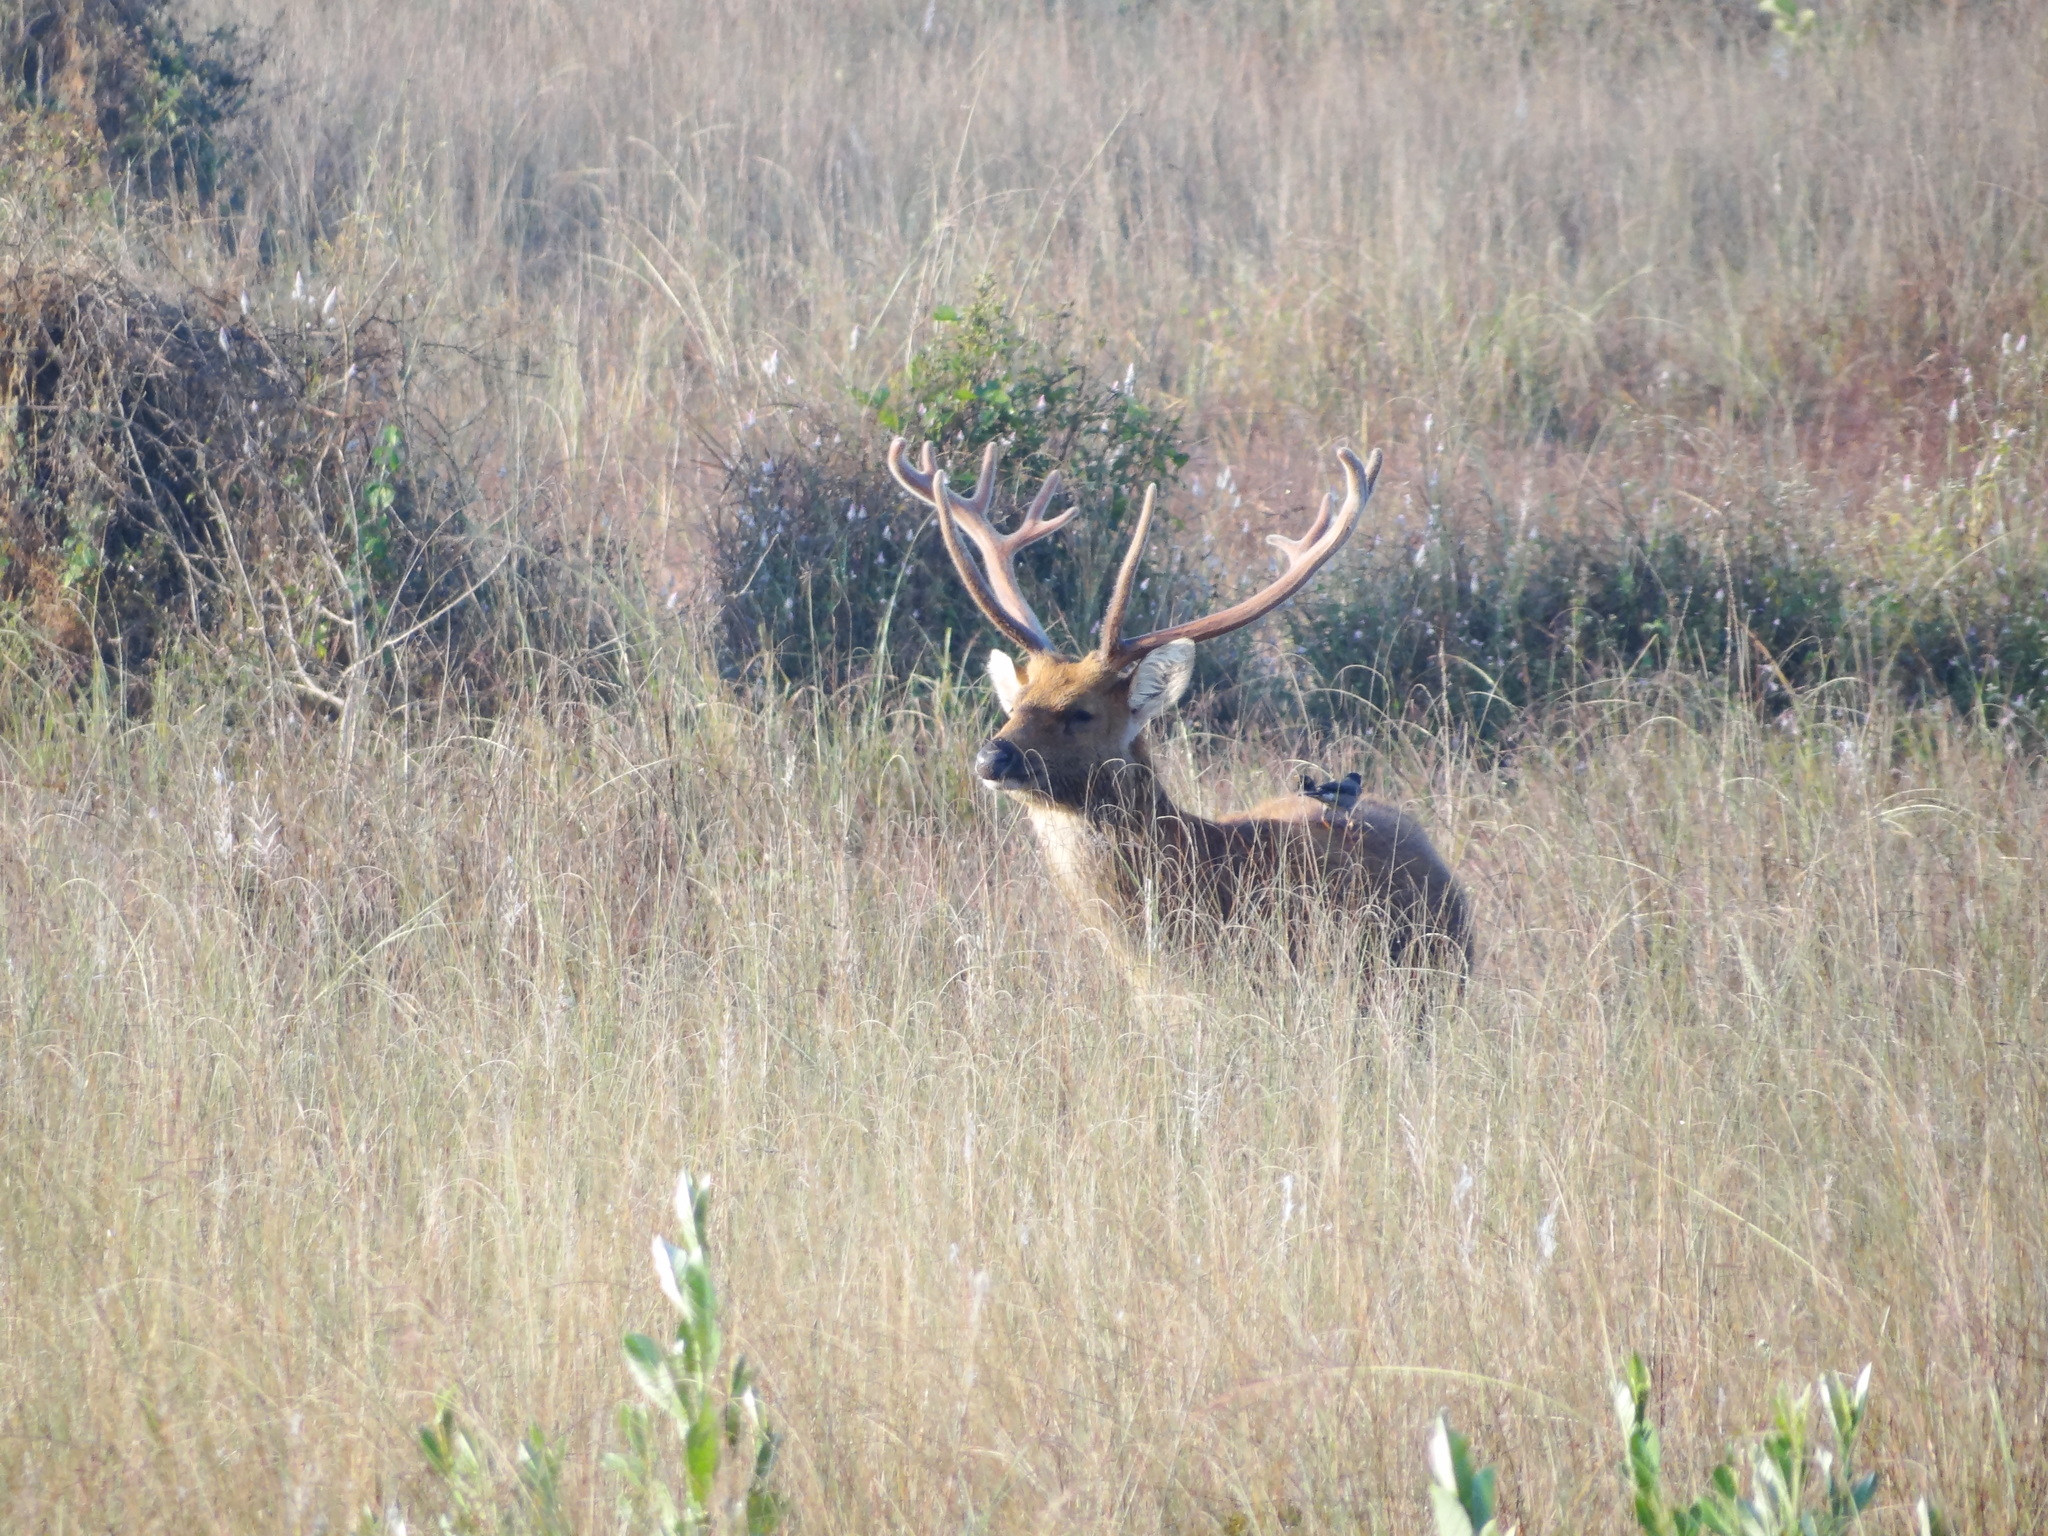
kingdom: Animalia
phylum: Chordata
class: Mammalia
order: Artiodactyla
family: Cervidae
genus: Rucervus
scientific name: Rucervus duvaucelii
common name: Barasingha
